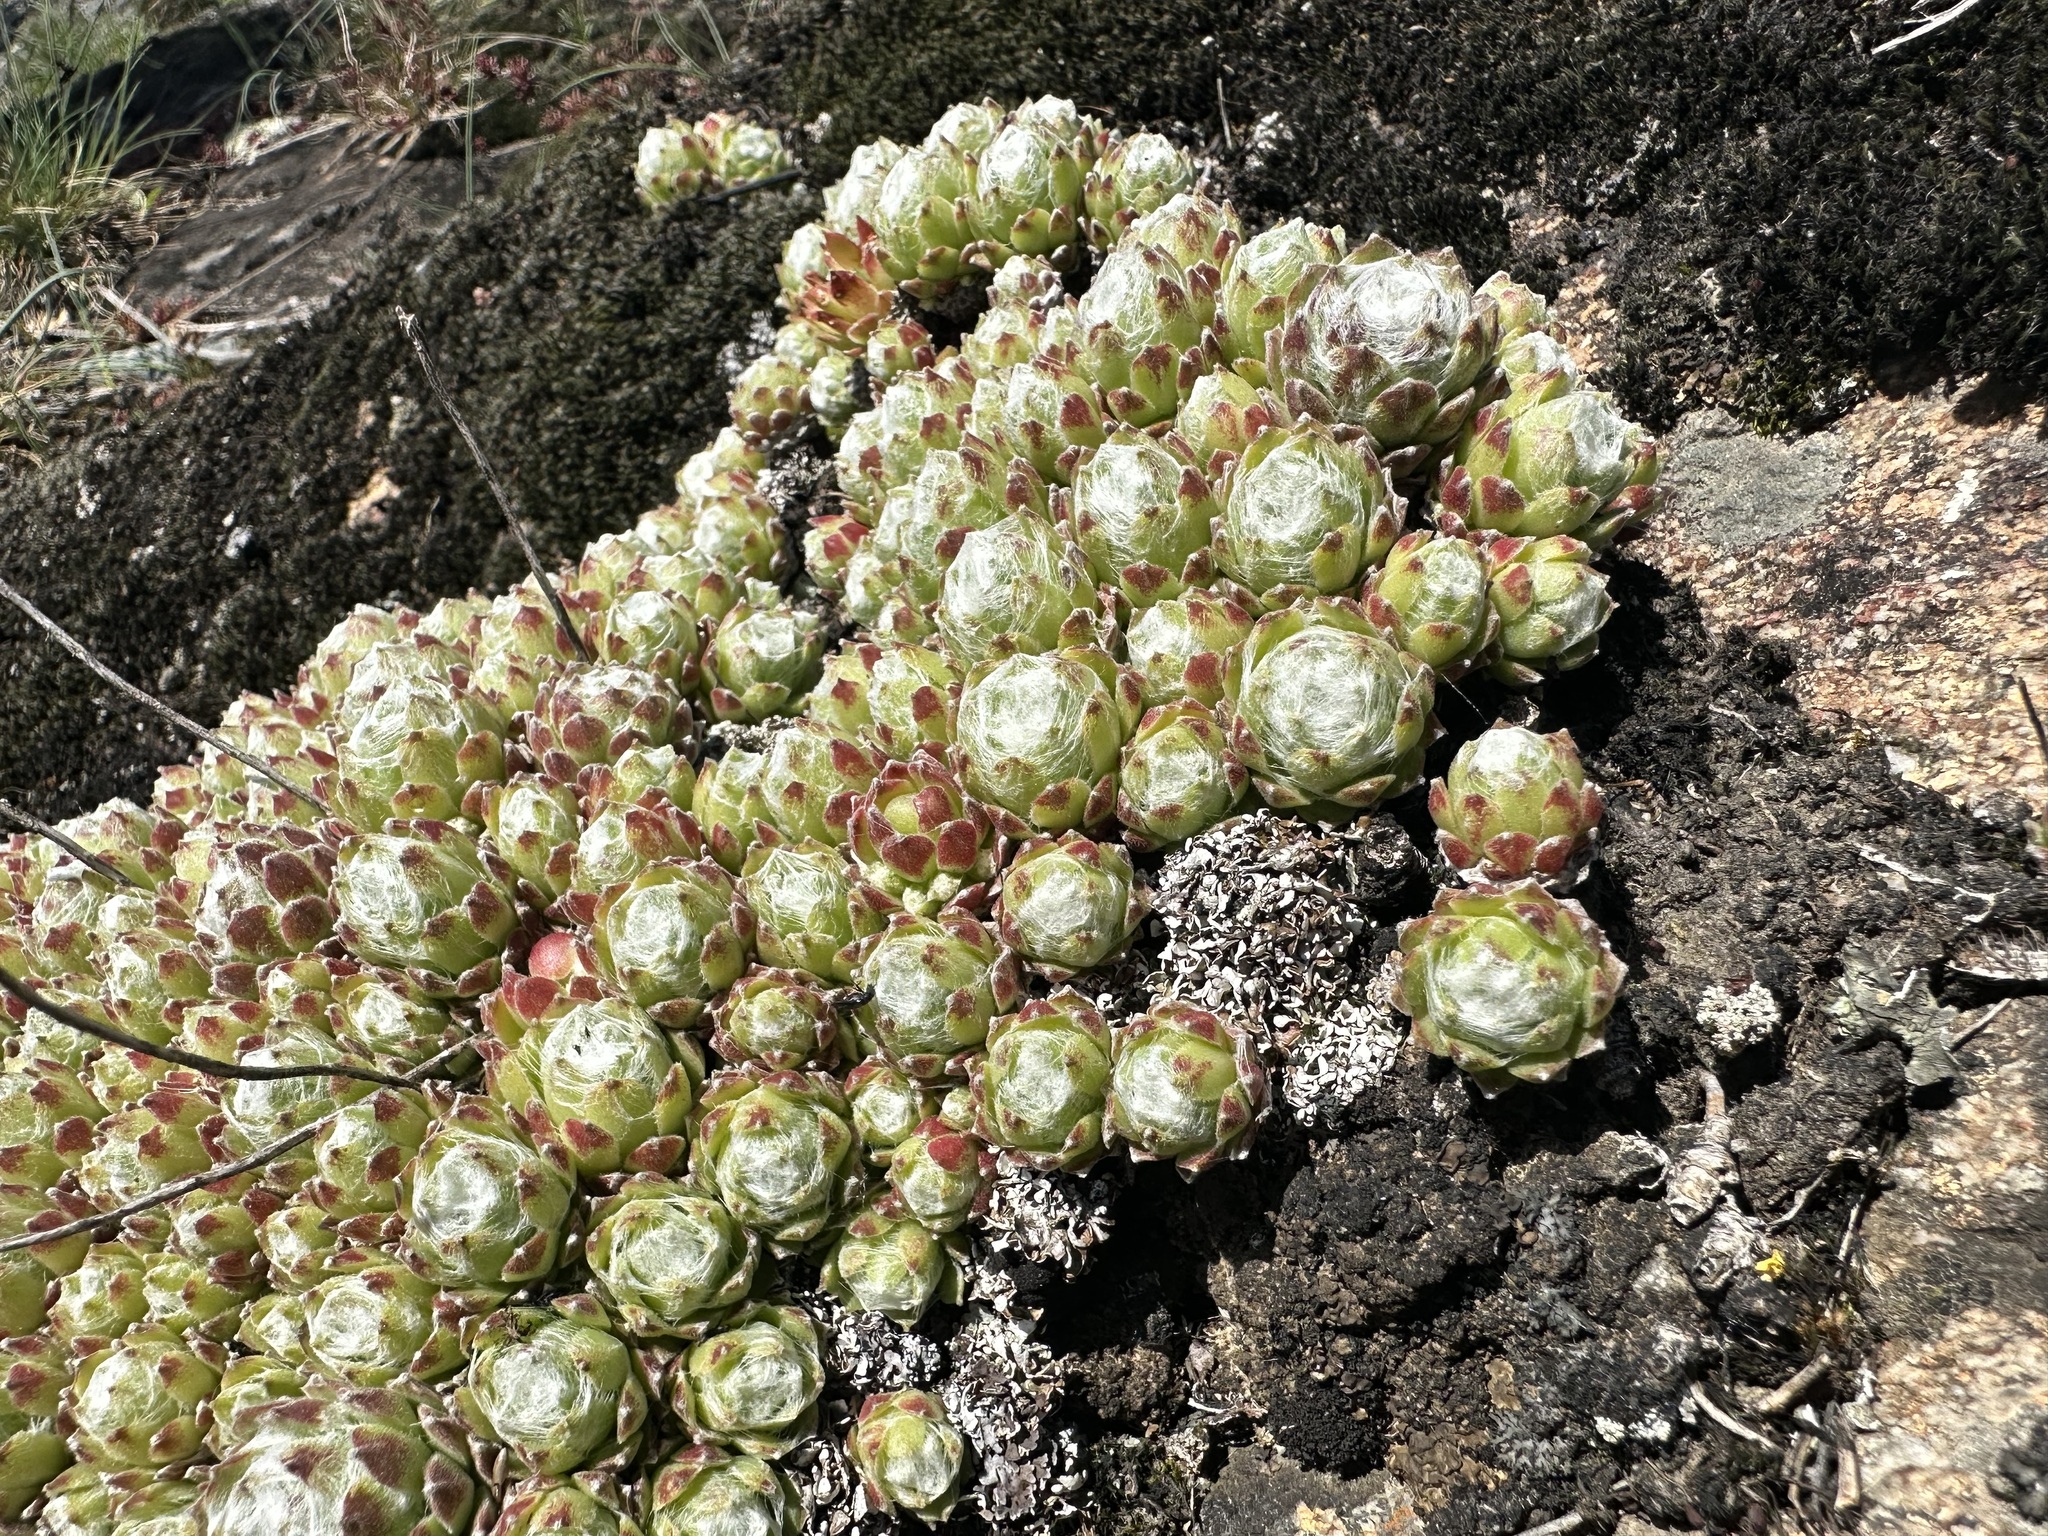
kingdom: Plantae
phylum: Tracheophyta
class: Magnoliopsida
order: Saxifragales
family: Crassulaceae
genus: Sempervivum
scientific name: Sempervivum arachnoideum
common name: Cobweb house-leek
